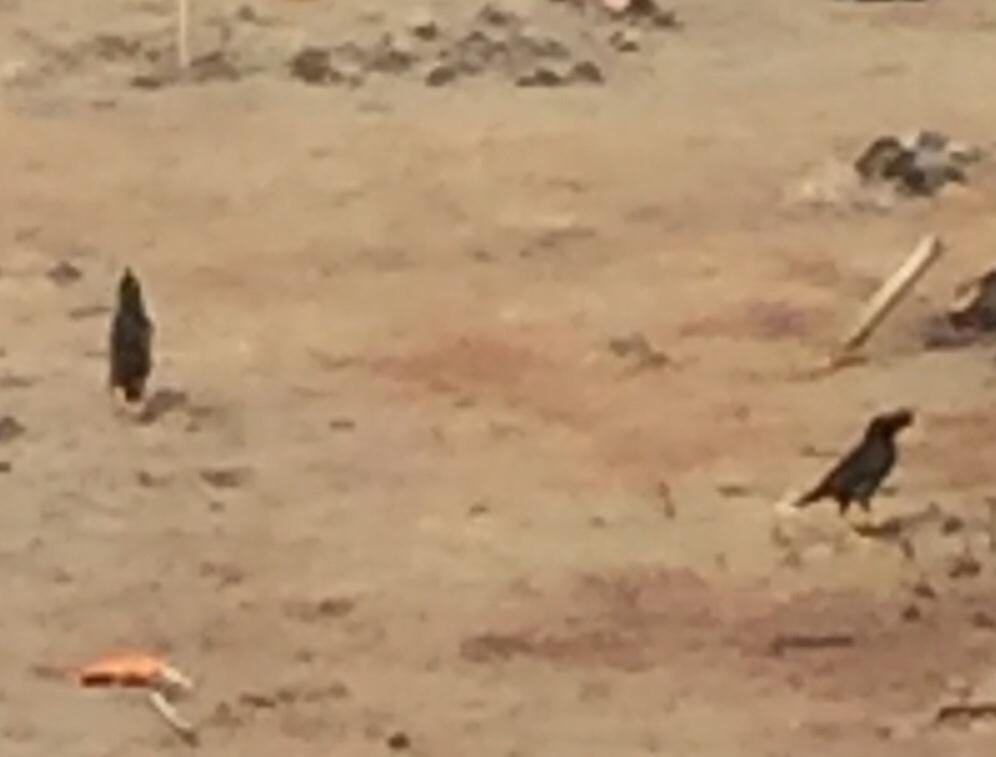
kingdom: Animalia
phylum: Chordata
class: Aves
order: Passeriformes
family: Sturnidae
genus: Acridotheres
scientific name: Acridotheres grandis
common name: Great myna
